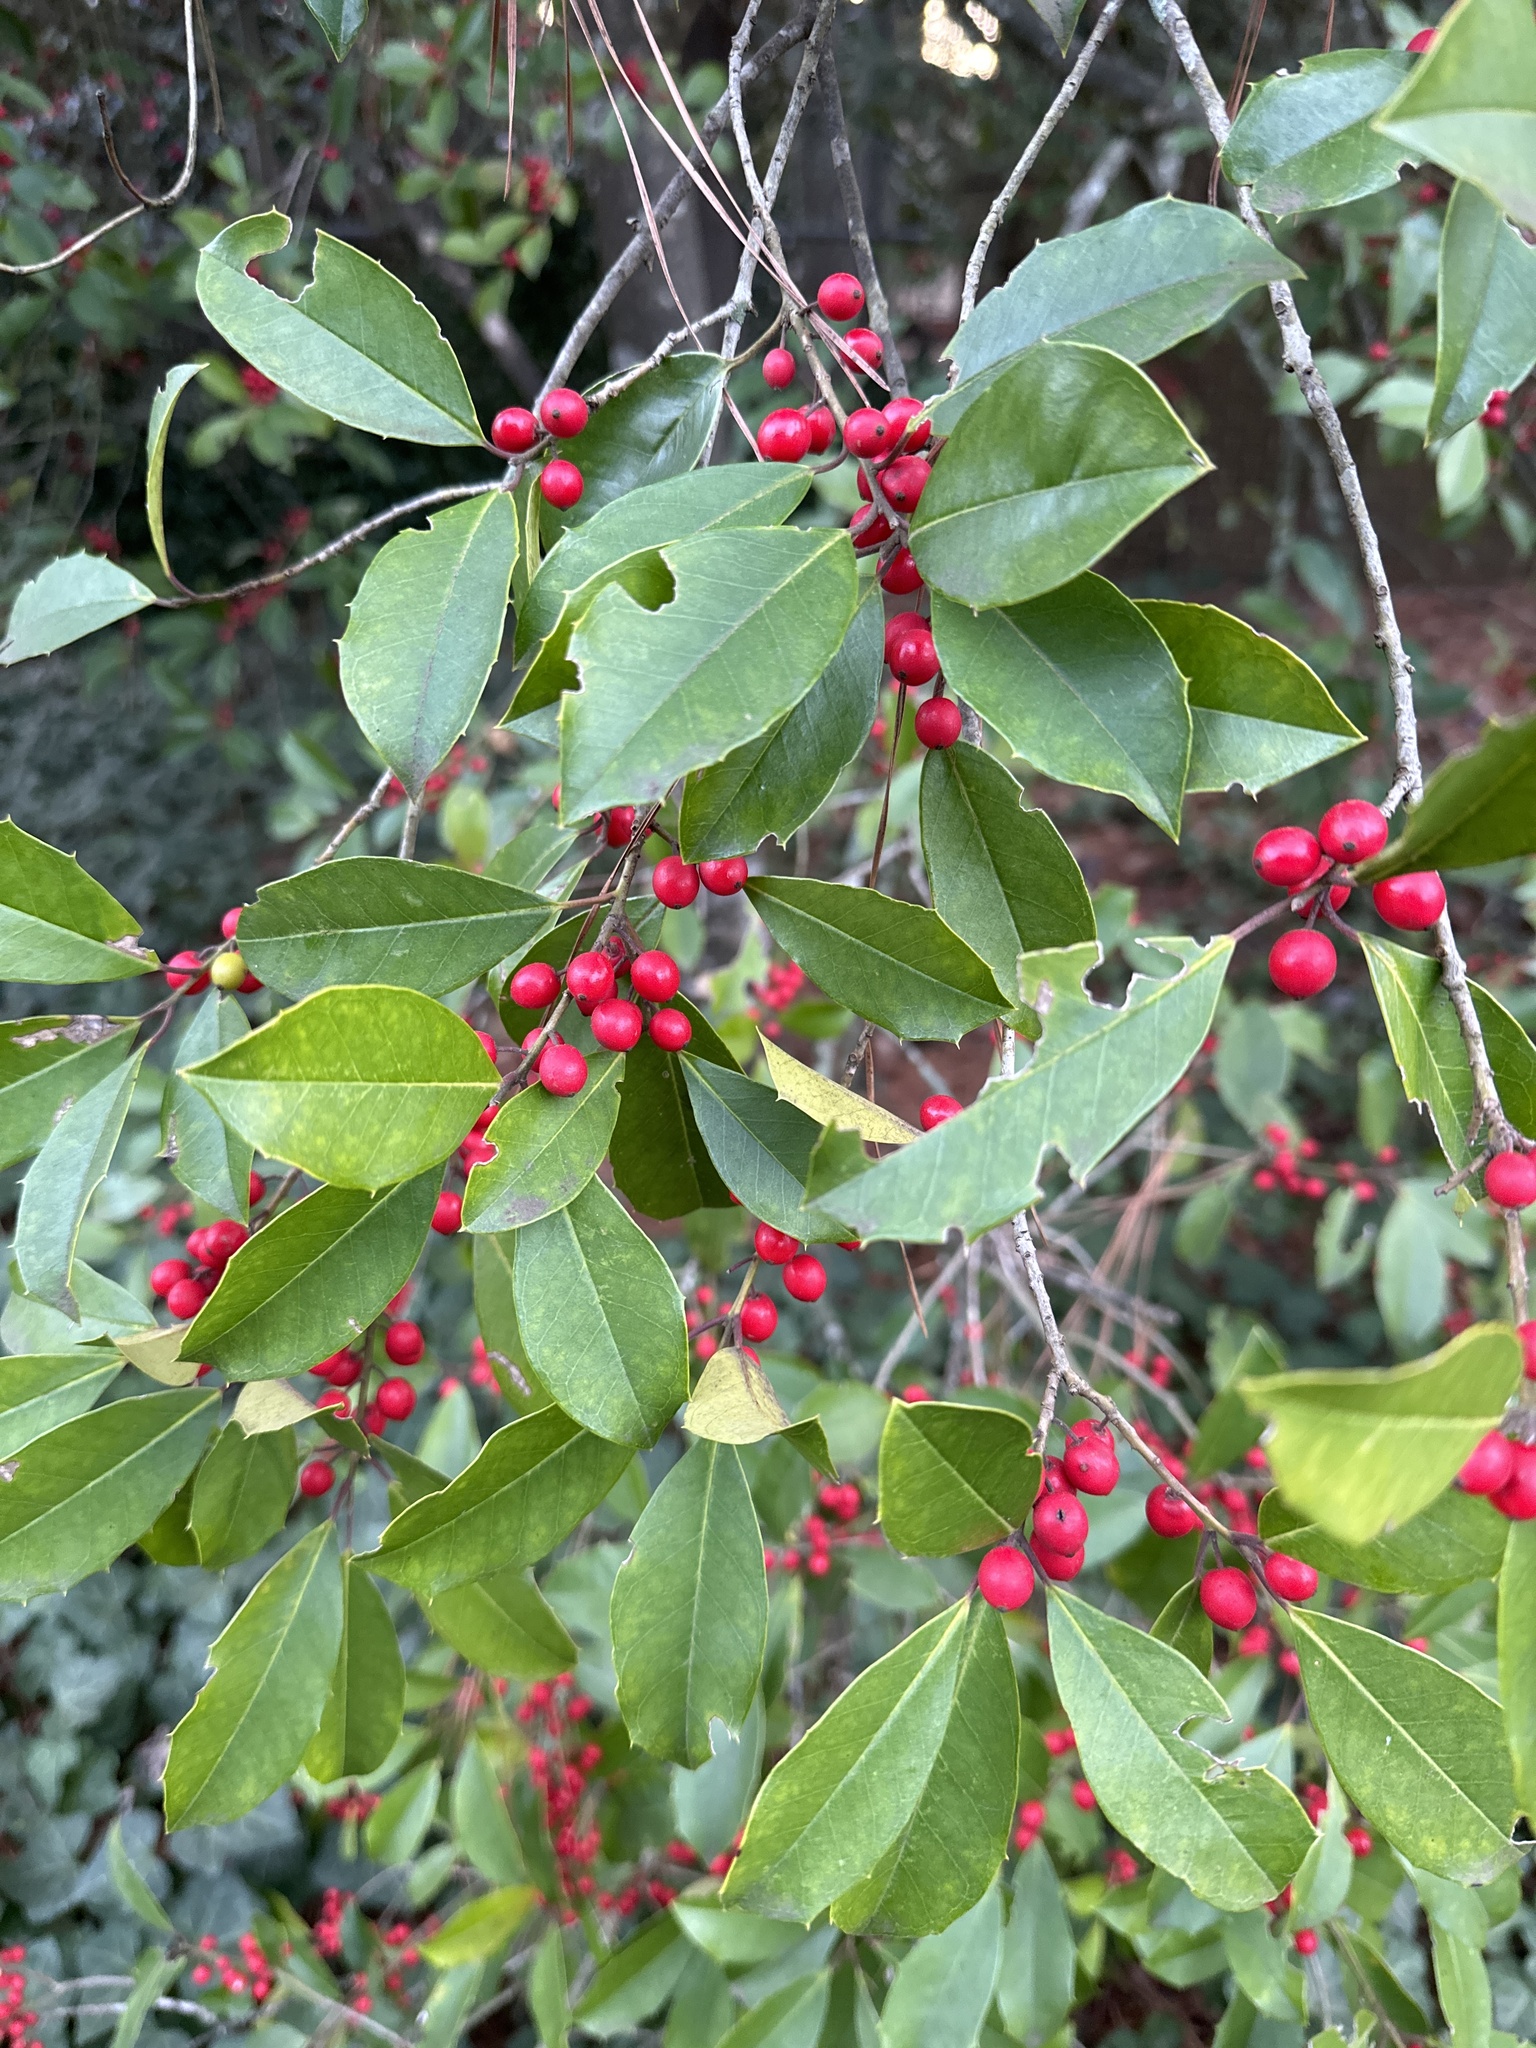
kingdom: Plantae
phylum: Tracheophyta
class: Magnoliopsida
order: Aquifoliales
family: Aquifoliaceae
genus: Ilex
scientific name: Ilex opaca
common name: American holly
